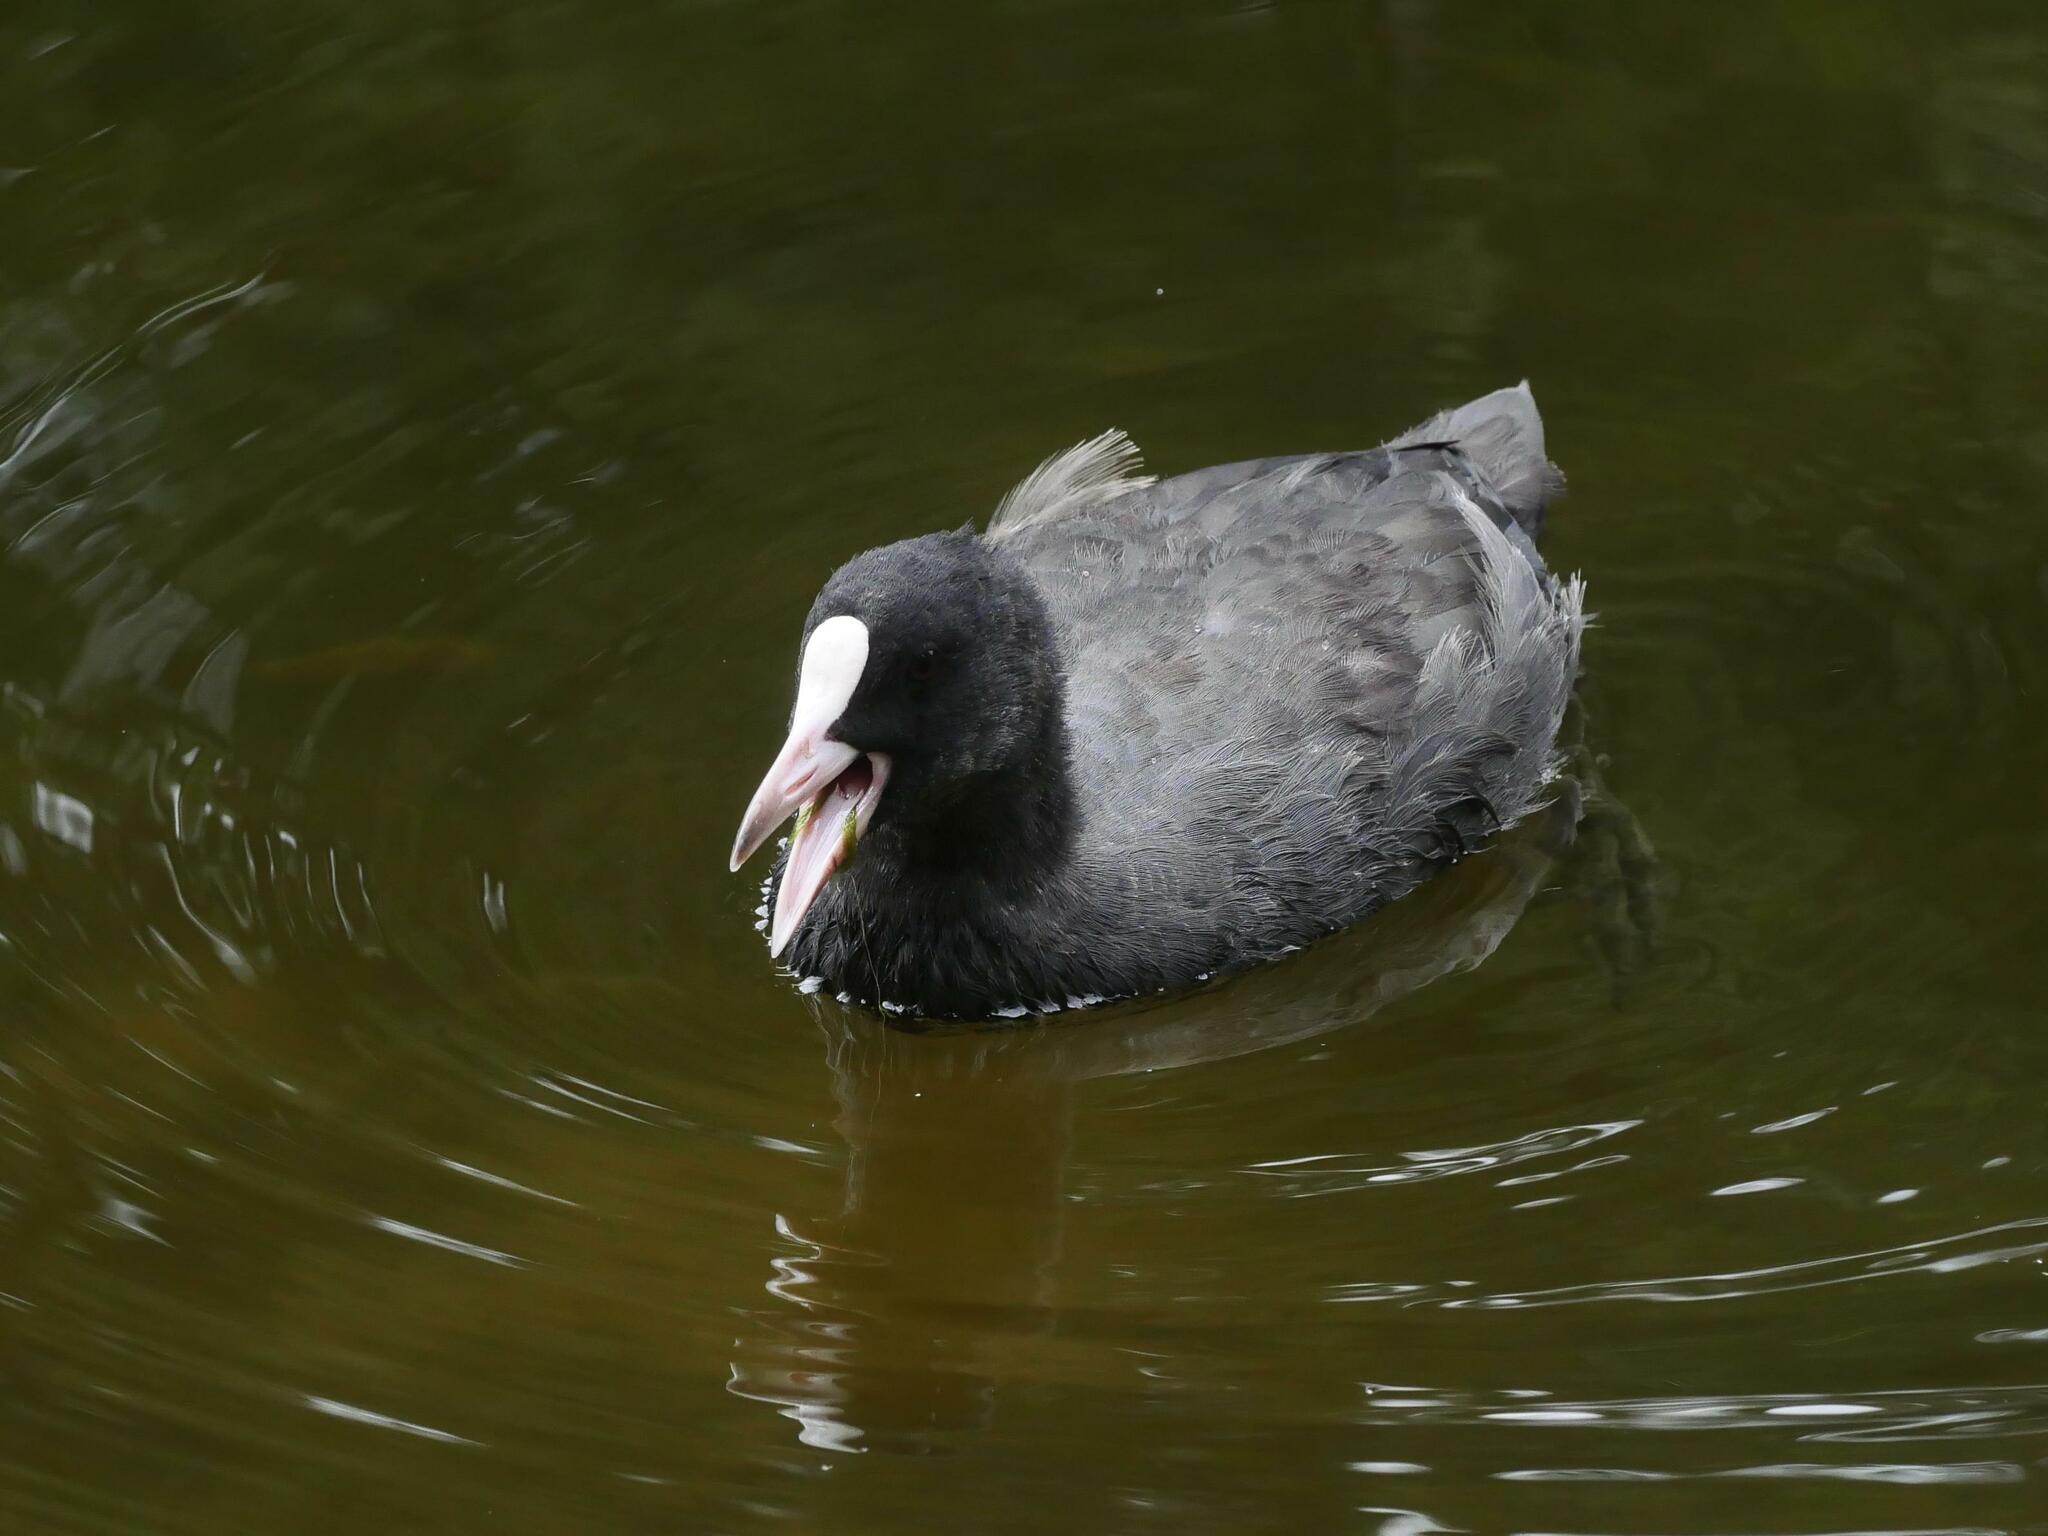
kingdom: Animalia
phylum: Chordata
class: Aves
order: Gruiformes
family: Rallidae
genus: Fulica
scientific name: Fulica atra
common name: Eurasian coot
